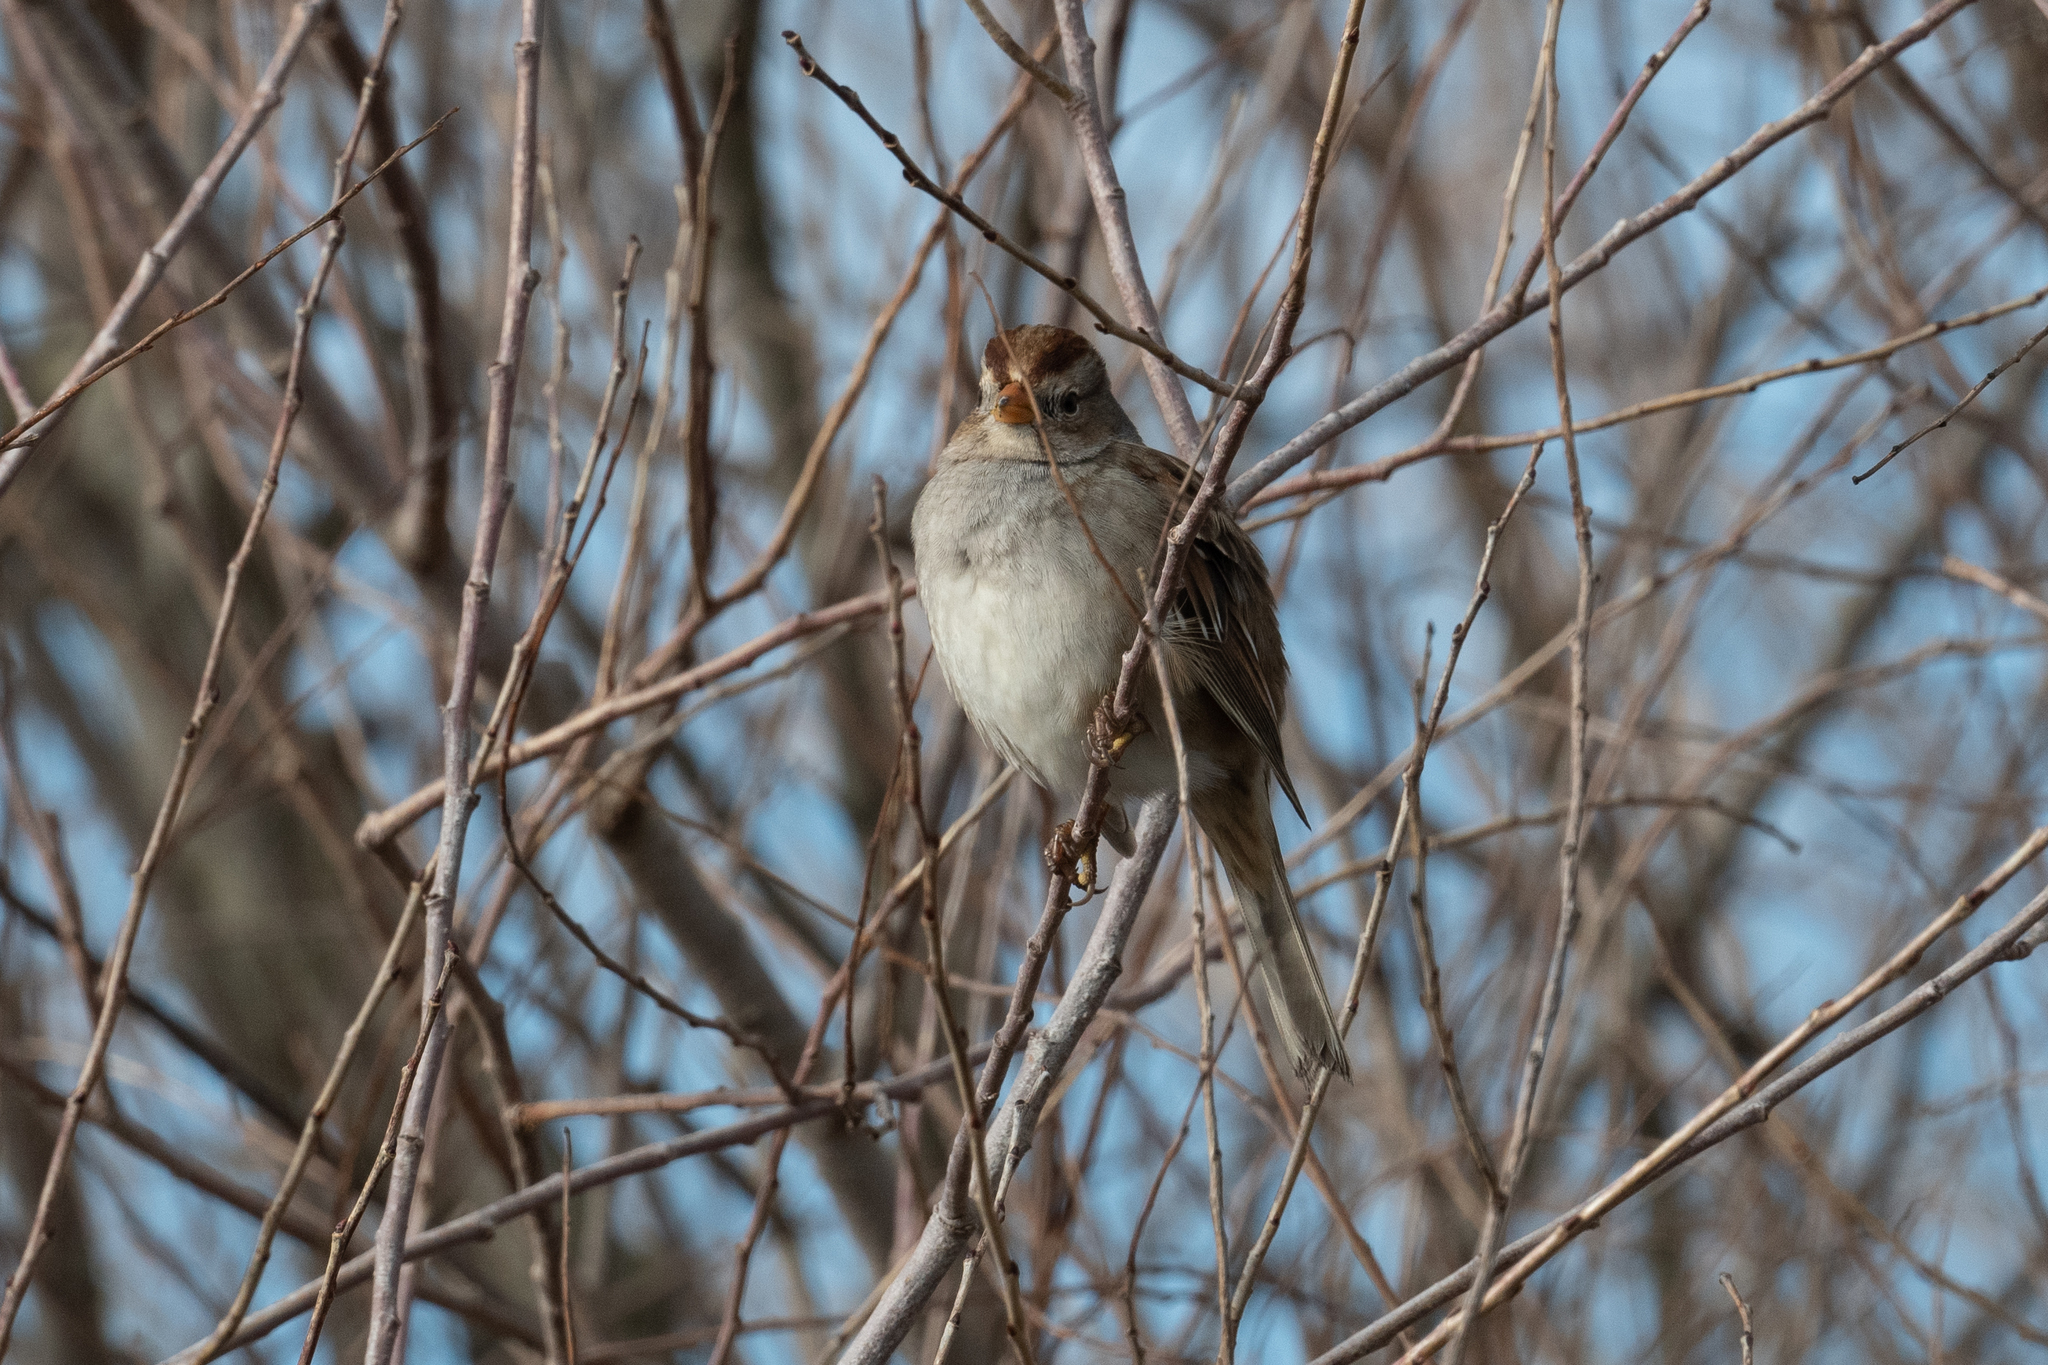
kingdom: Animalia
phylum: Chordata
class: Aves
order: Passeriformes
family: Passerellidae
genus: Zonotrichia
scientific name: Zonotrichia leucophrys
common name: White-crowned sparrow
